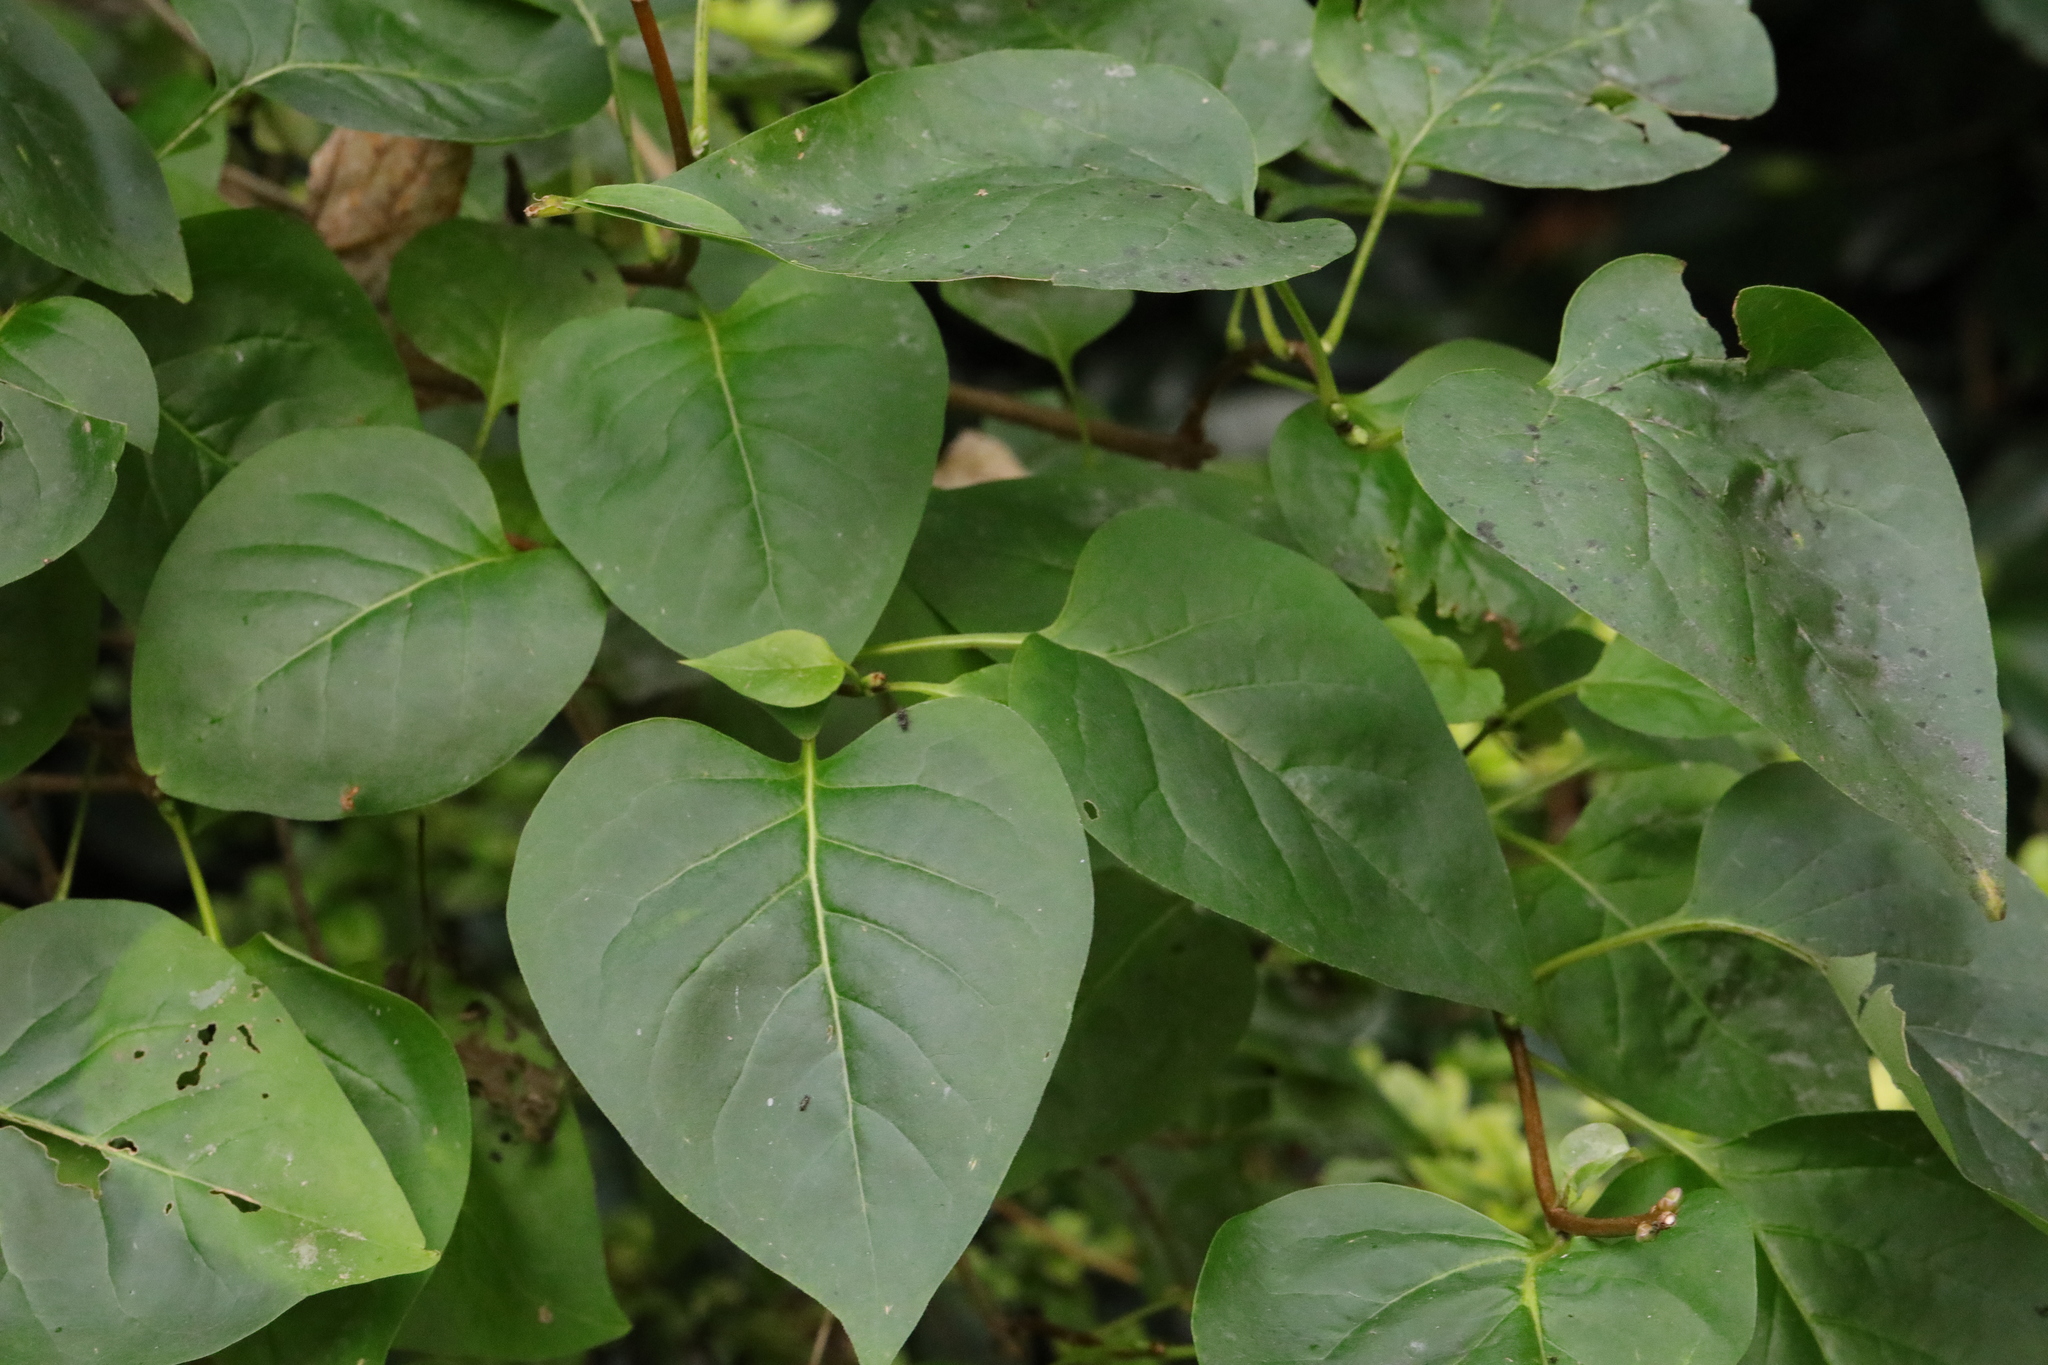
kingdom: Plantae
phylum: Tracheophyta
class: Magnoliopsida
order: Lamiales
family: Oleaceae
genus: Syringa
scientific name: Syringa vulgaris
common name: Common lilac
